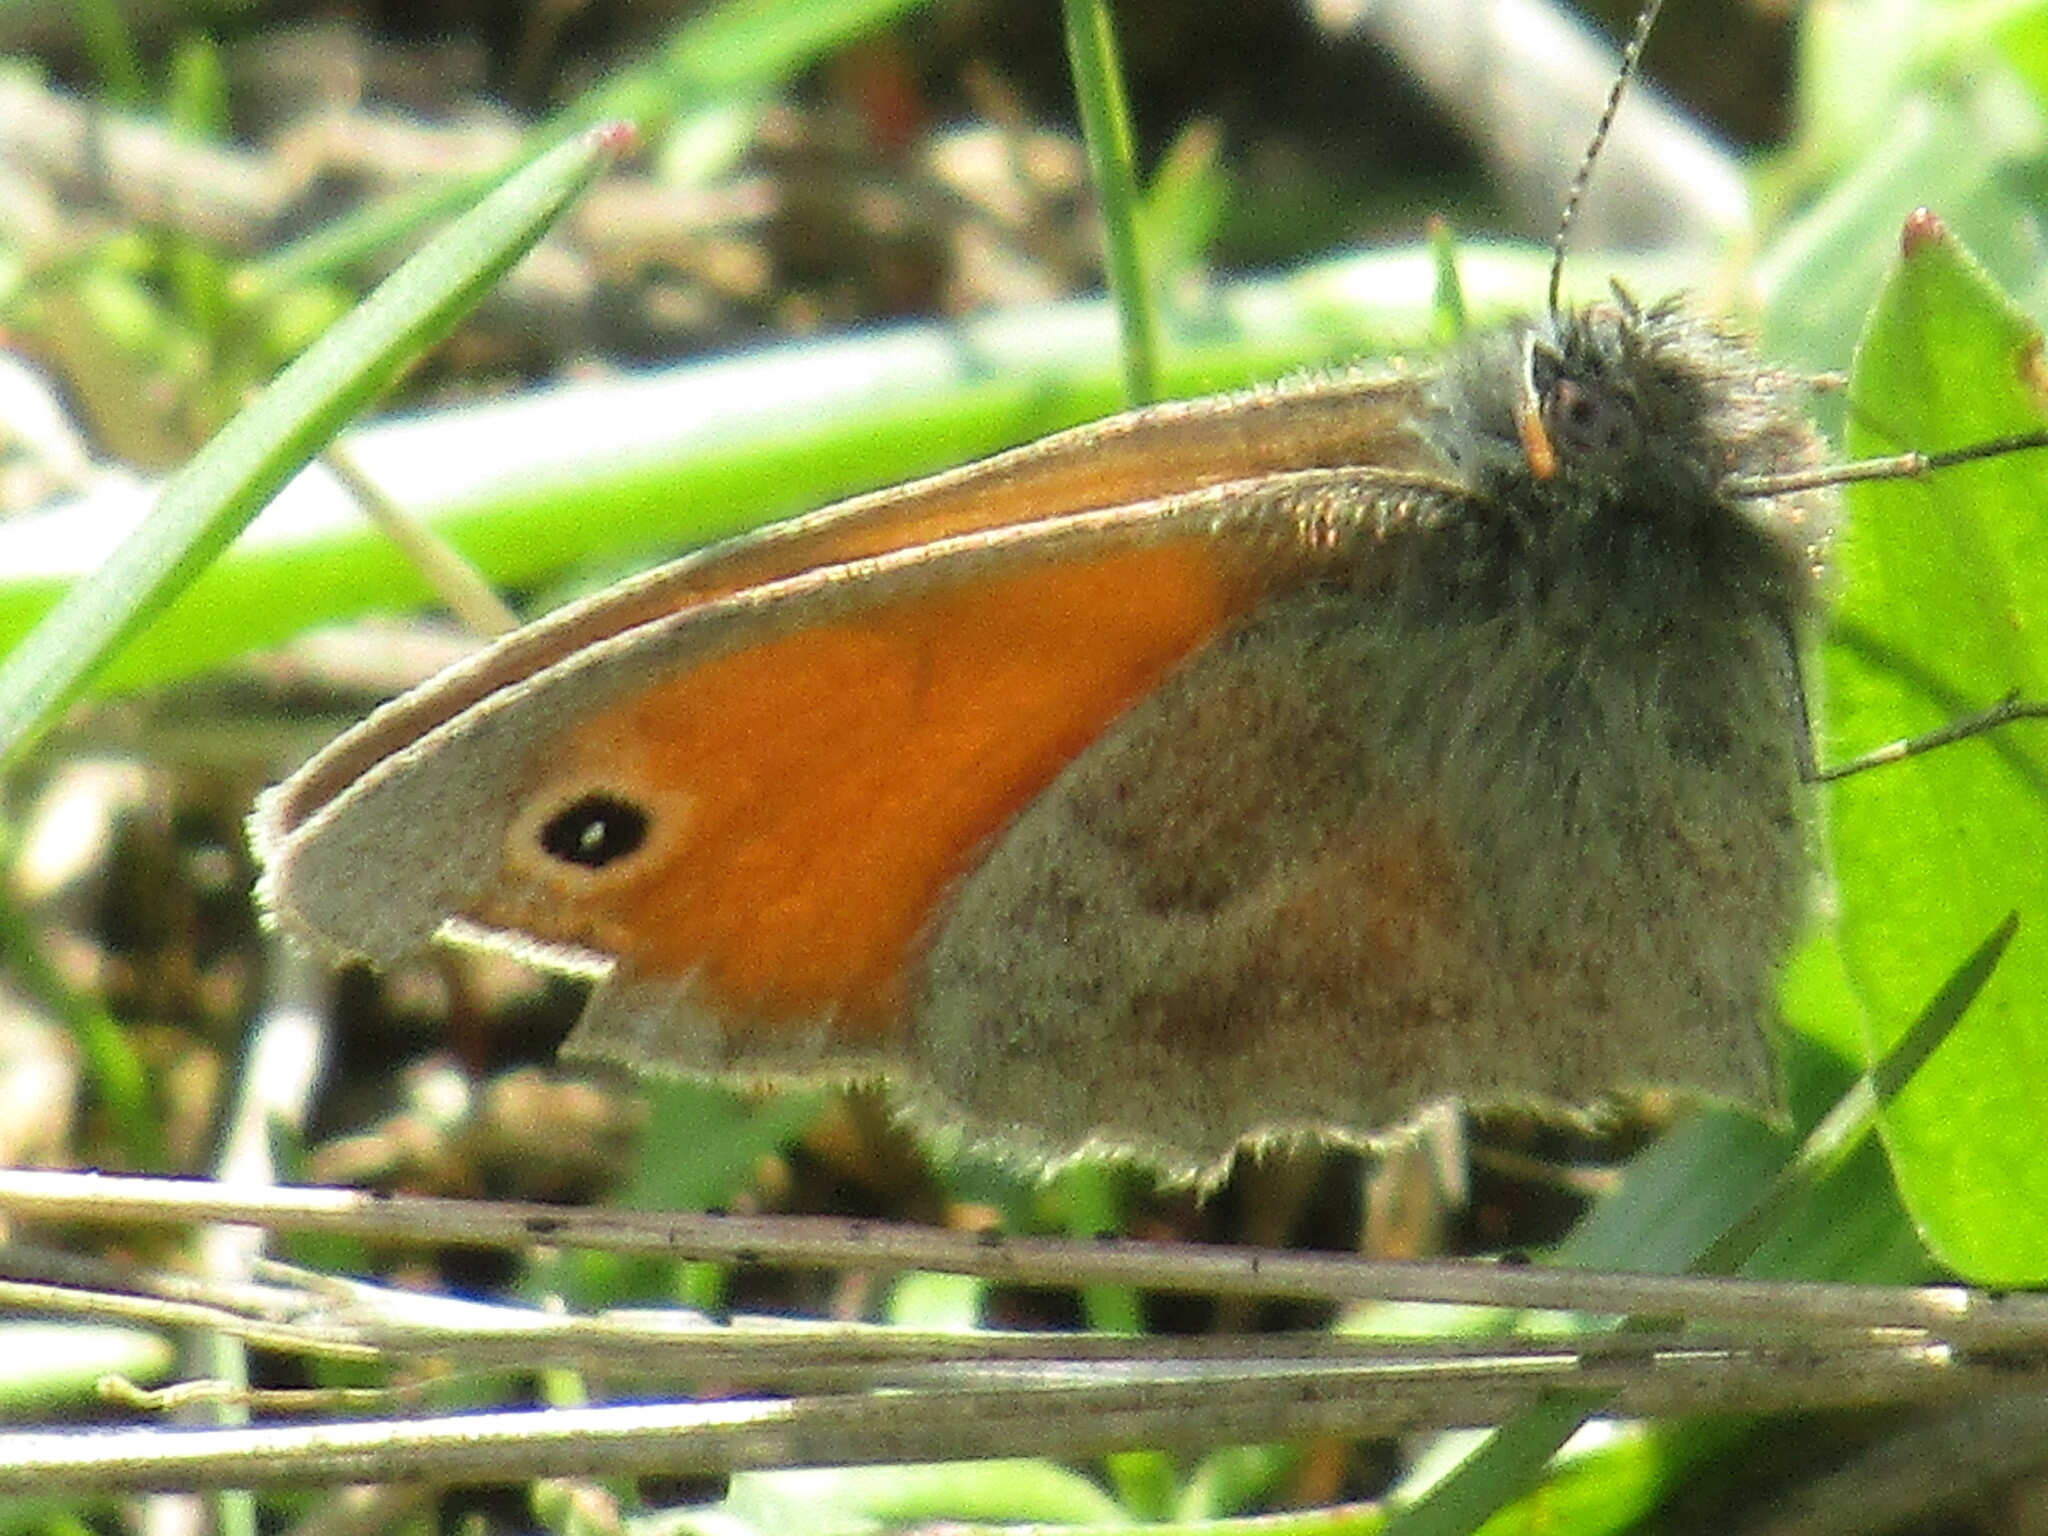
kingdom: Animalia
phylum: Arthropoda
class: Insecta
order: Lepidoptera
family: Nymphalidae
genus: Coenonympha
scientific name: Coenonympha pamphilus
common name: Small heath
